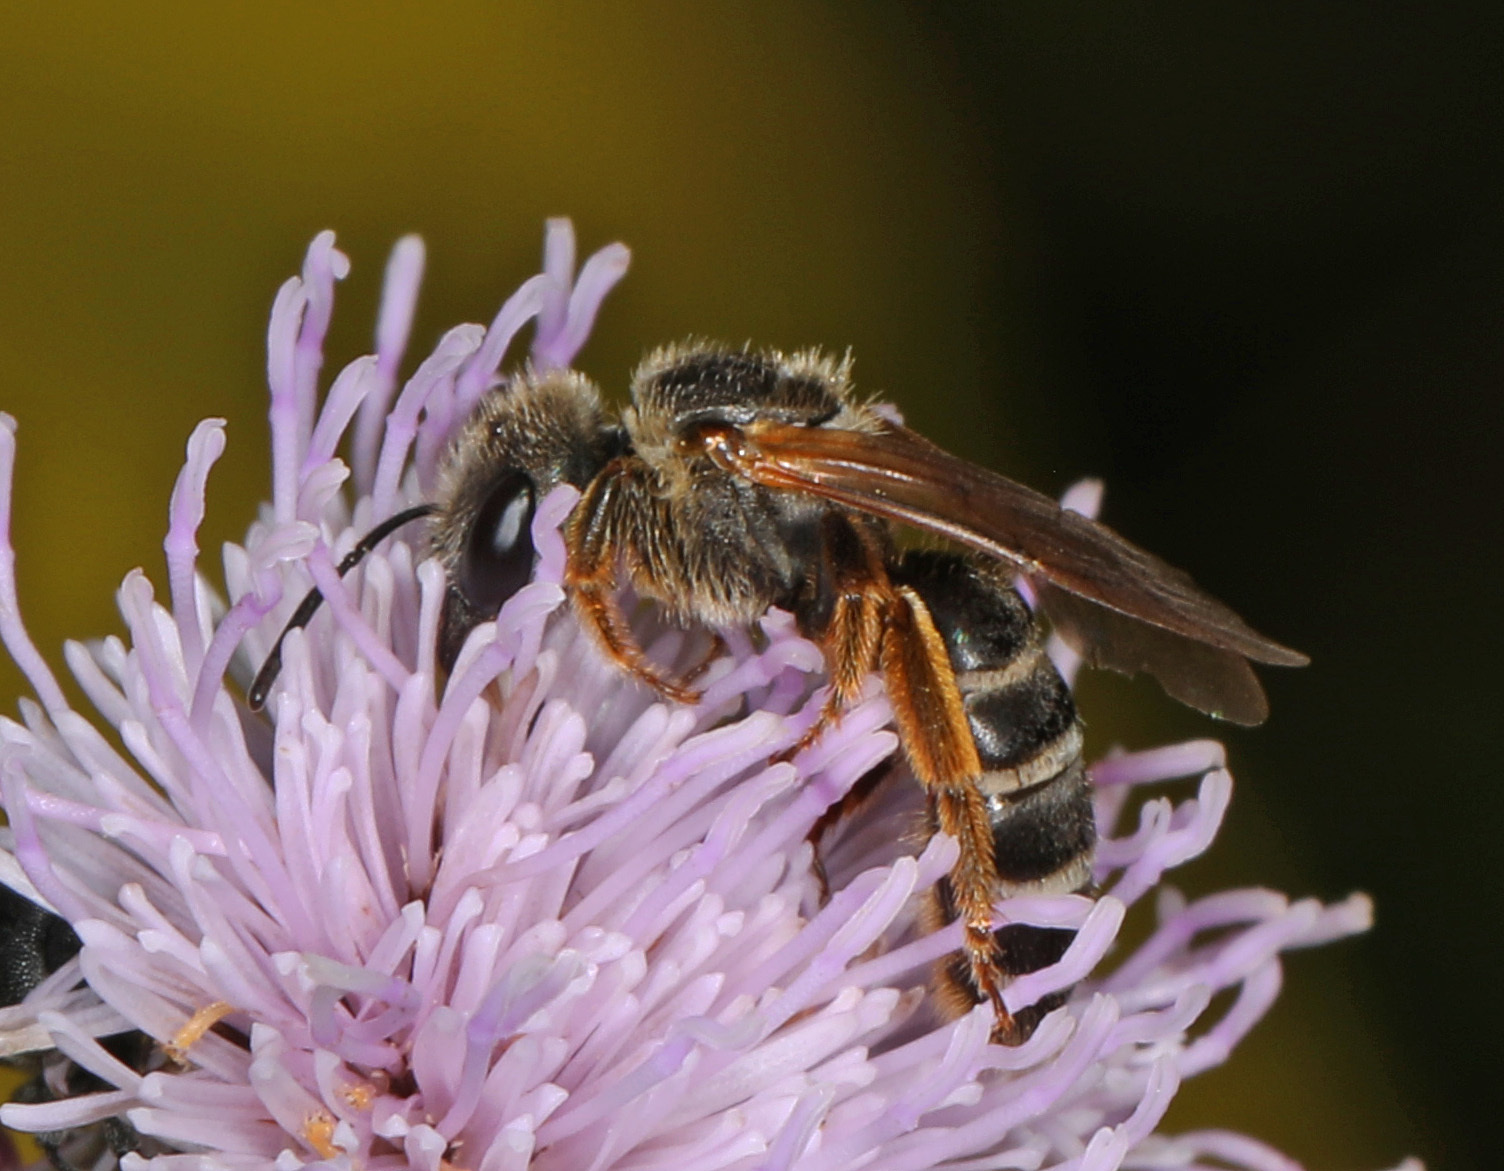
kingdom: Animalia
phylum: Arthropoda
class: Insecta
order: Hymenoptera
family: Halictidae
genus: Halictus
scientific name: Halictus rubicundus
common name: Orange-legged furrow bee
